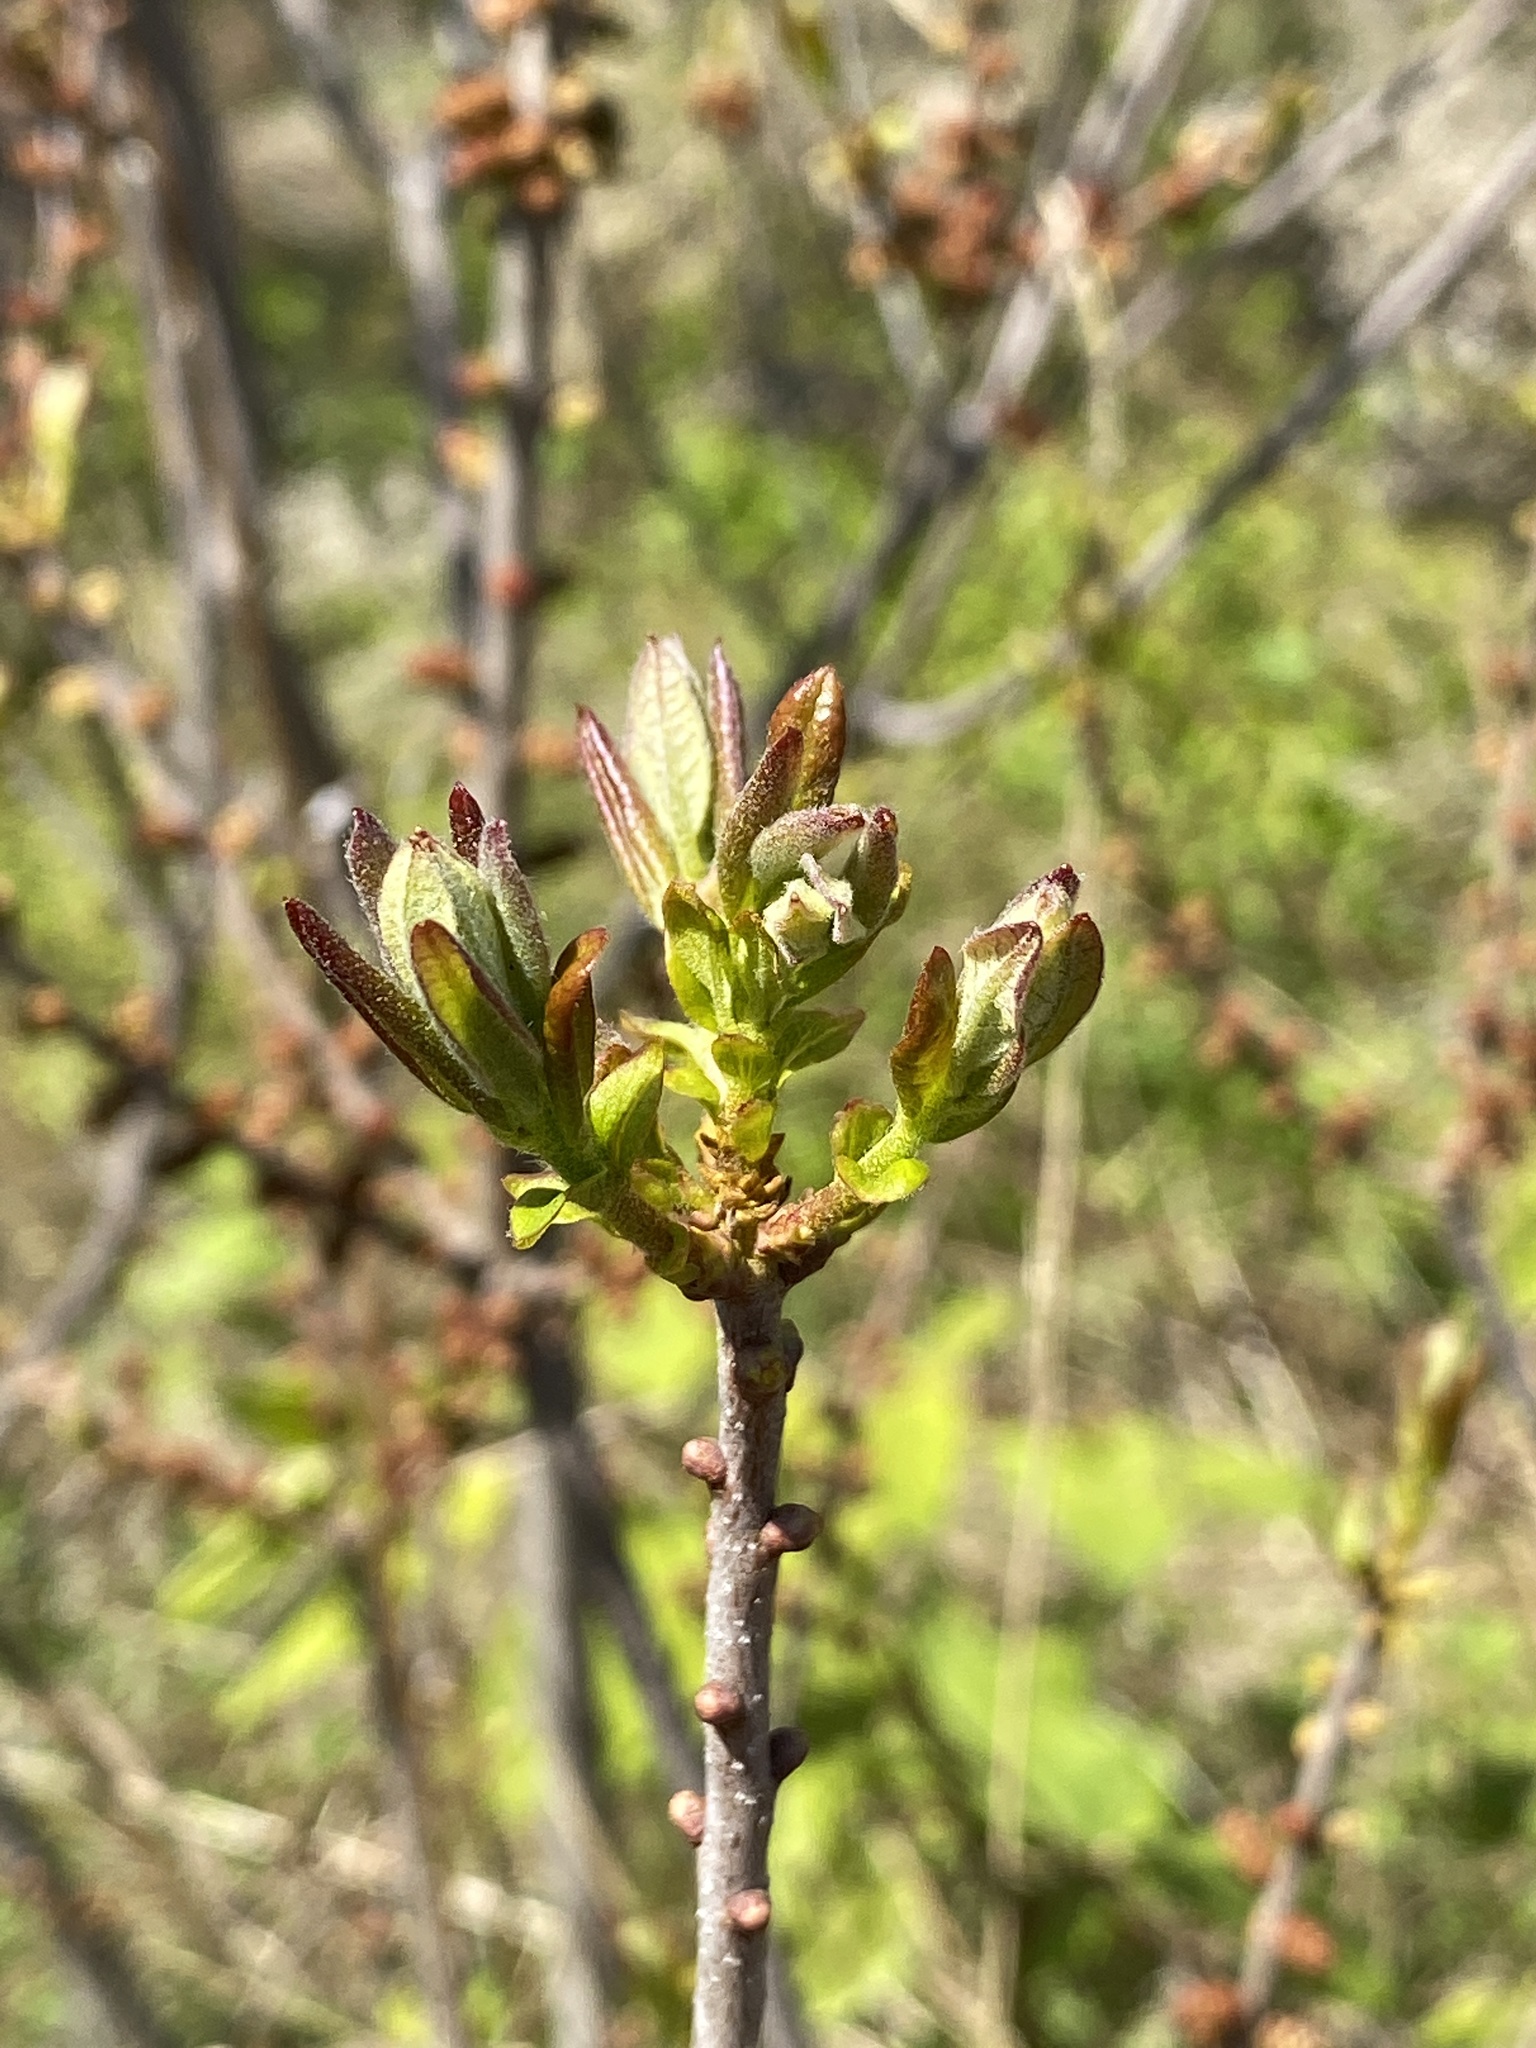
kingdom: Plantae
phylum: Tracheophyta
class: Magnoliopsida
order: Fagales
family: Myricaceae
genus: Morella
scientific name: Morella pensylvanica
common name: Northern bayberry
